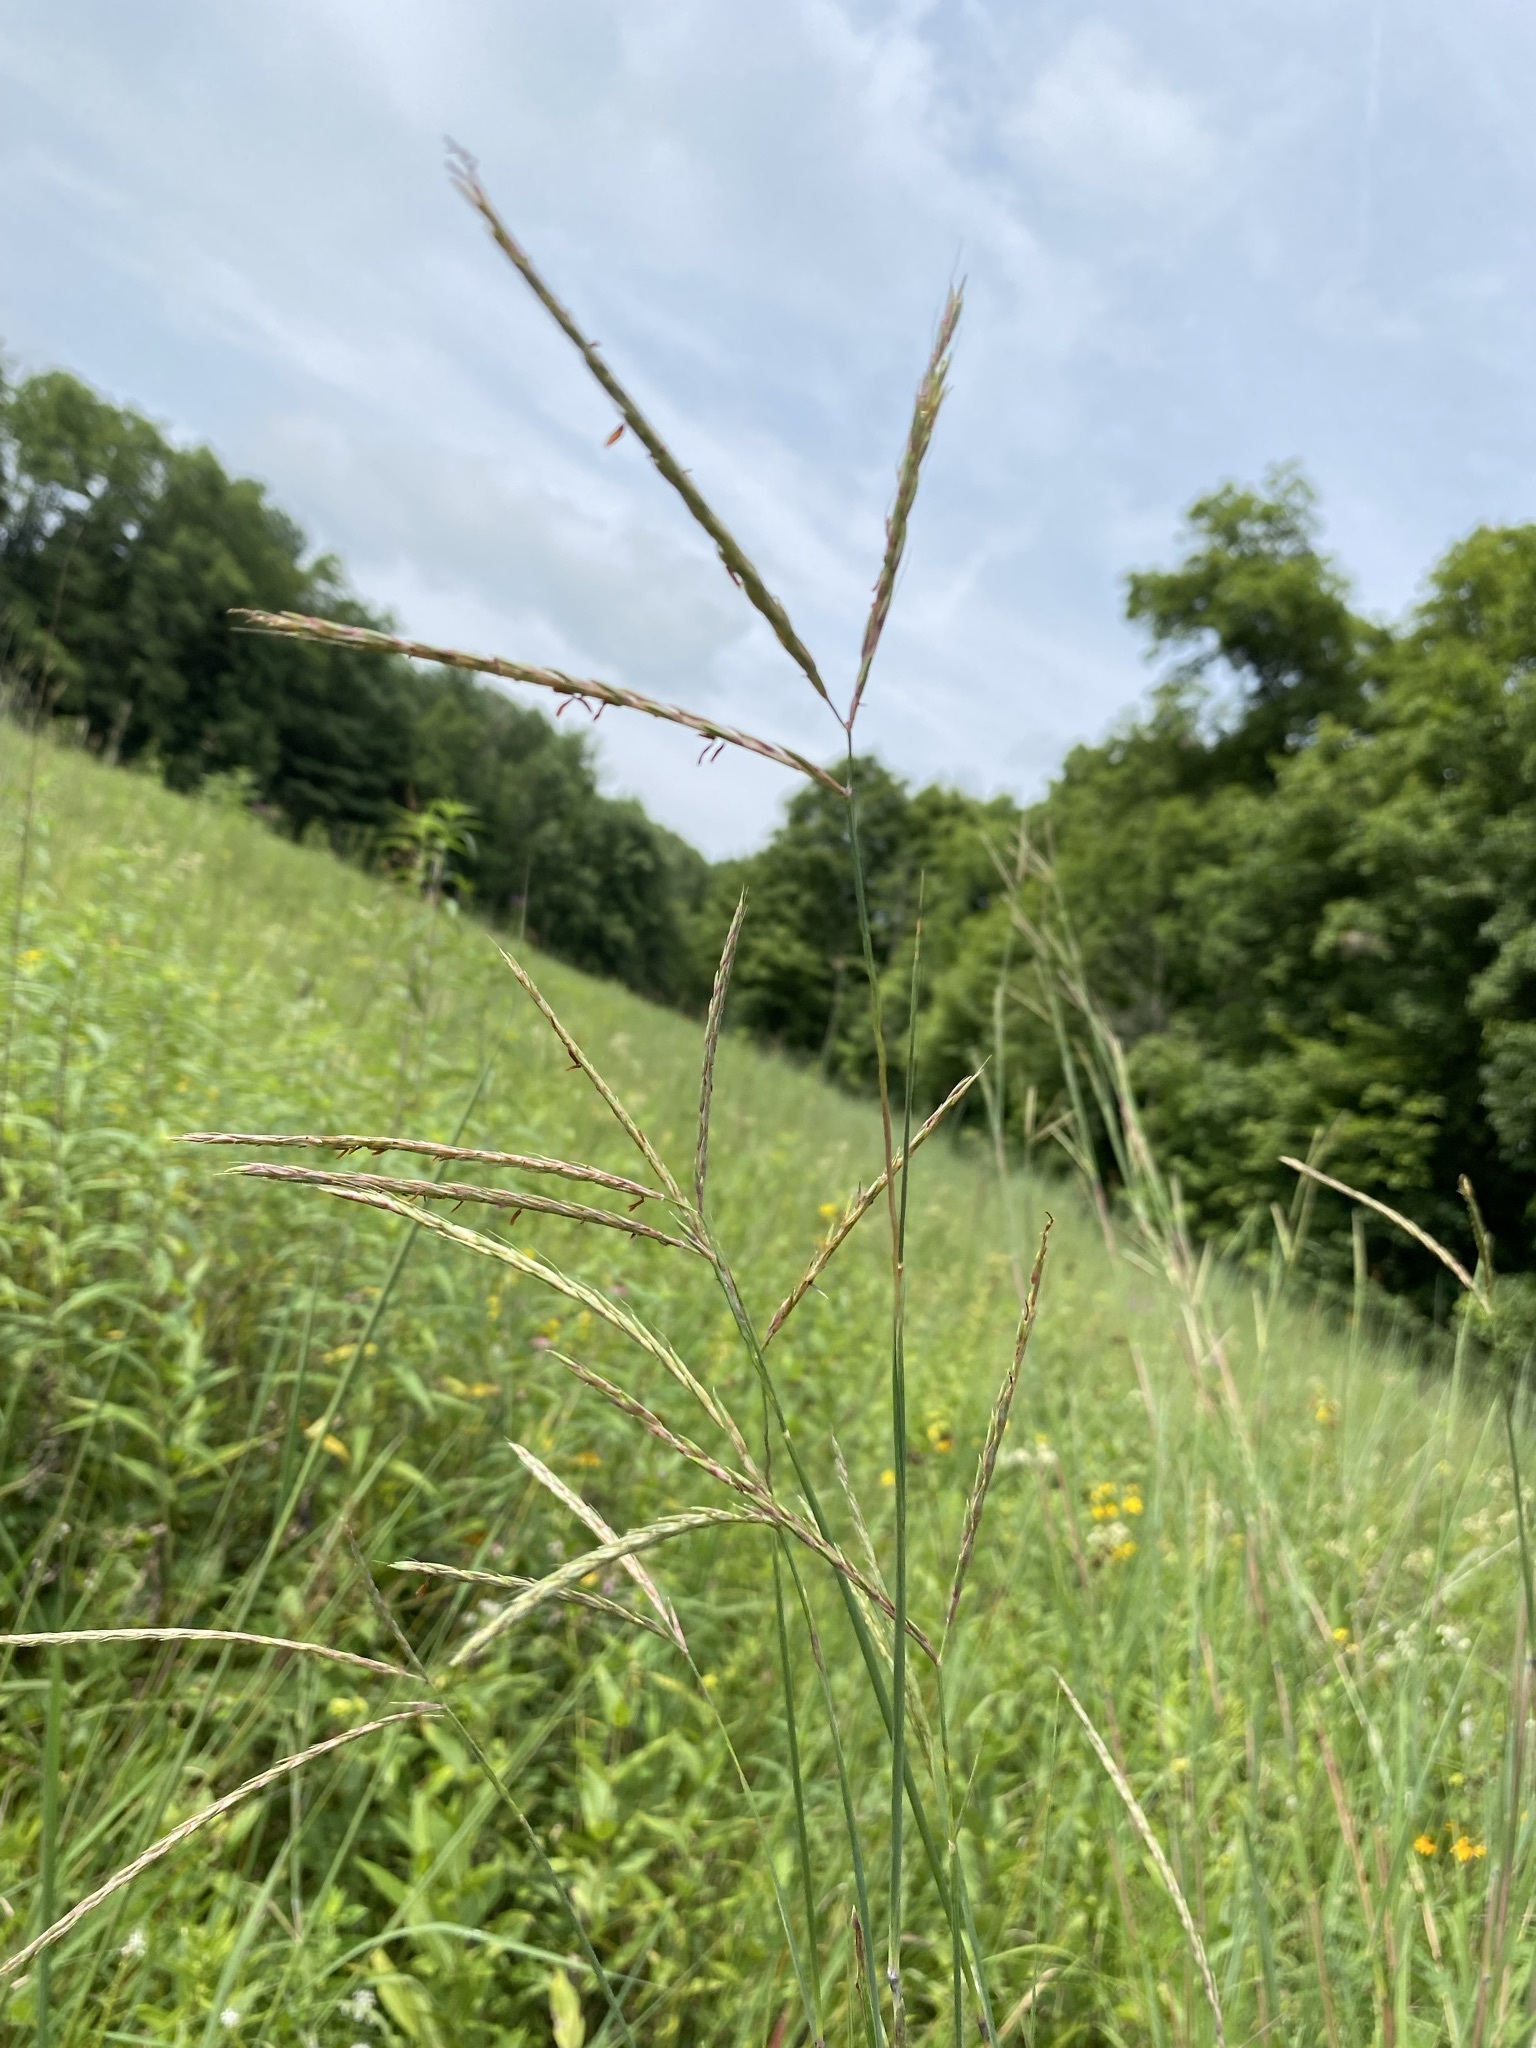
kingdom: Plantae
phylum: Tracheophyta
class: Liliopsida
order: Poales
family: Poaceae
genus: Andropogon
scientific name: Andropogon gerardi
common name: Big bluestem
